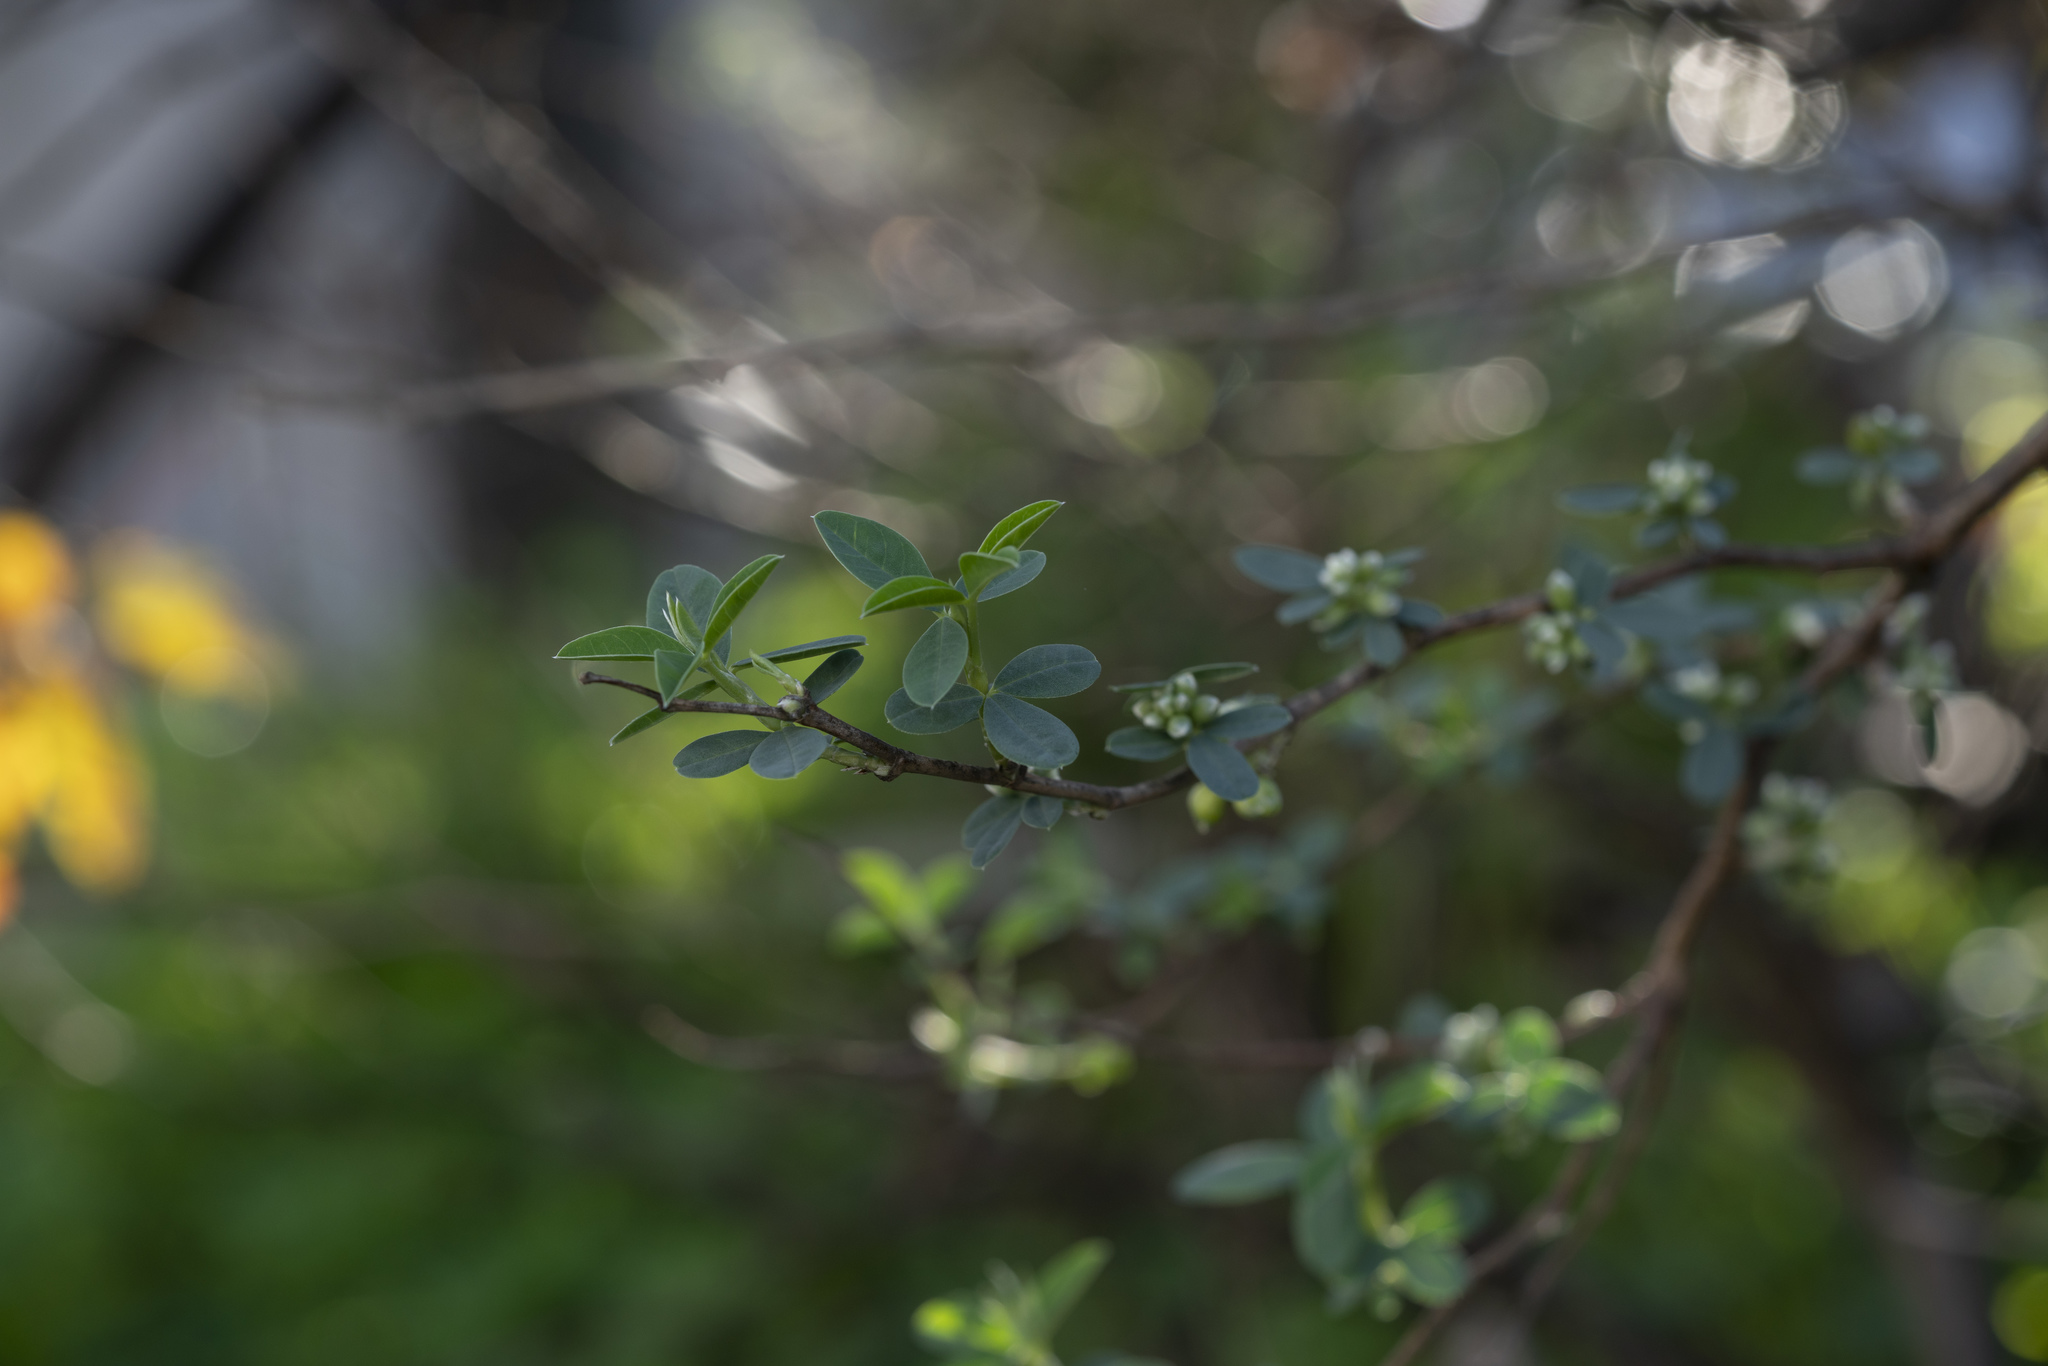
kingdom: Plantae
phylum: Tracheophyta
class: Magnoliopsida
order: Fabales
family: Fabaceae
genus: Anagyris
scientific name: Anagyris foetida
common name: Stinking bean trefoil
